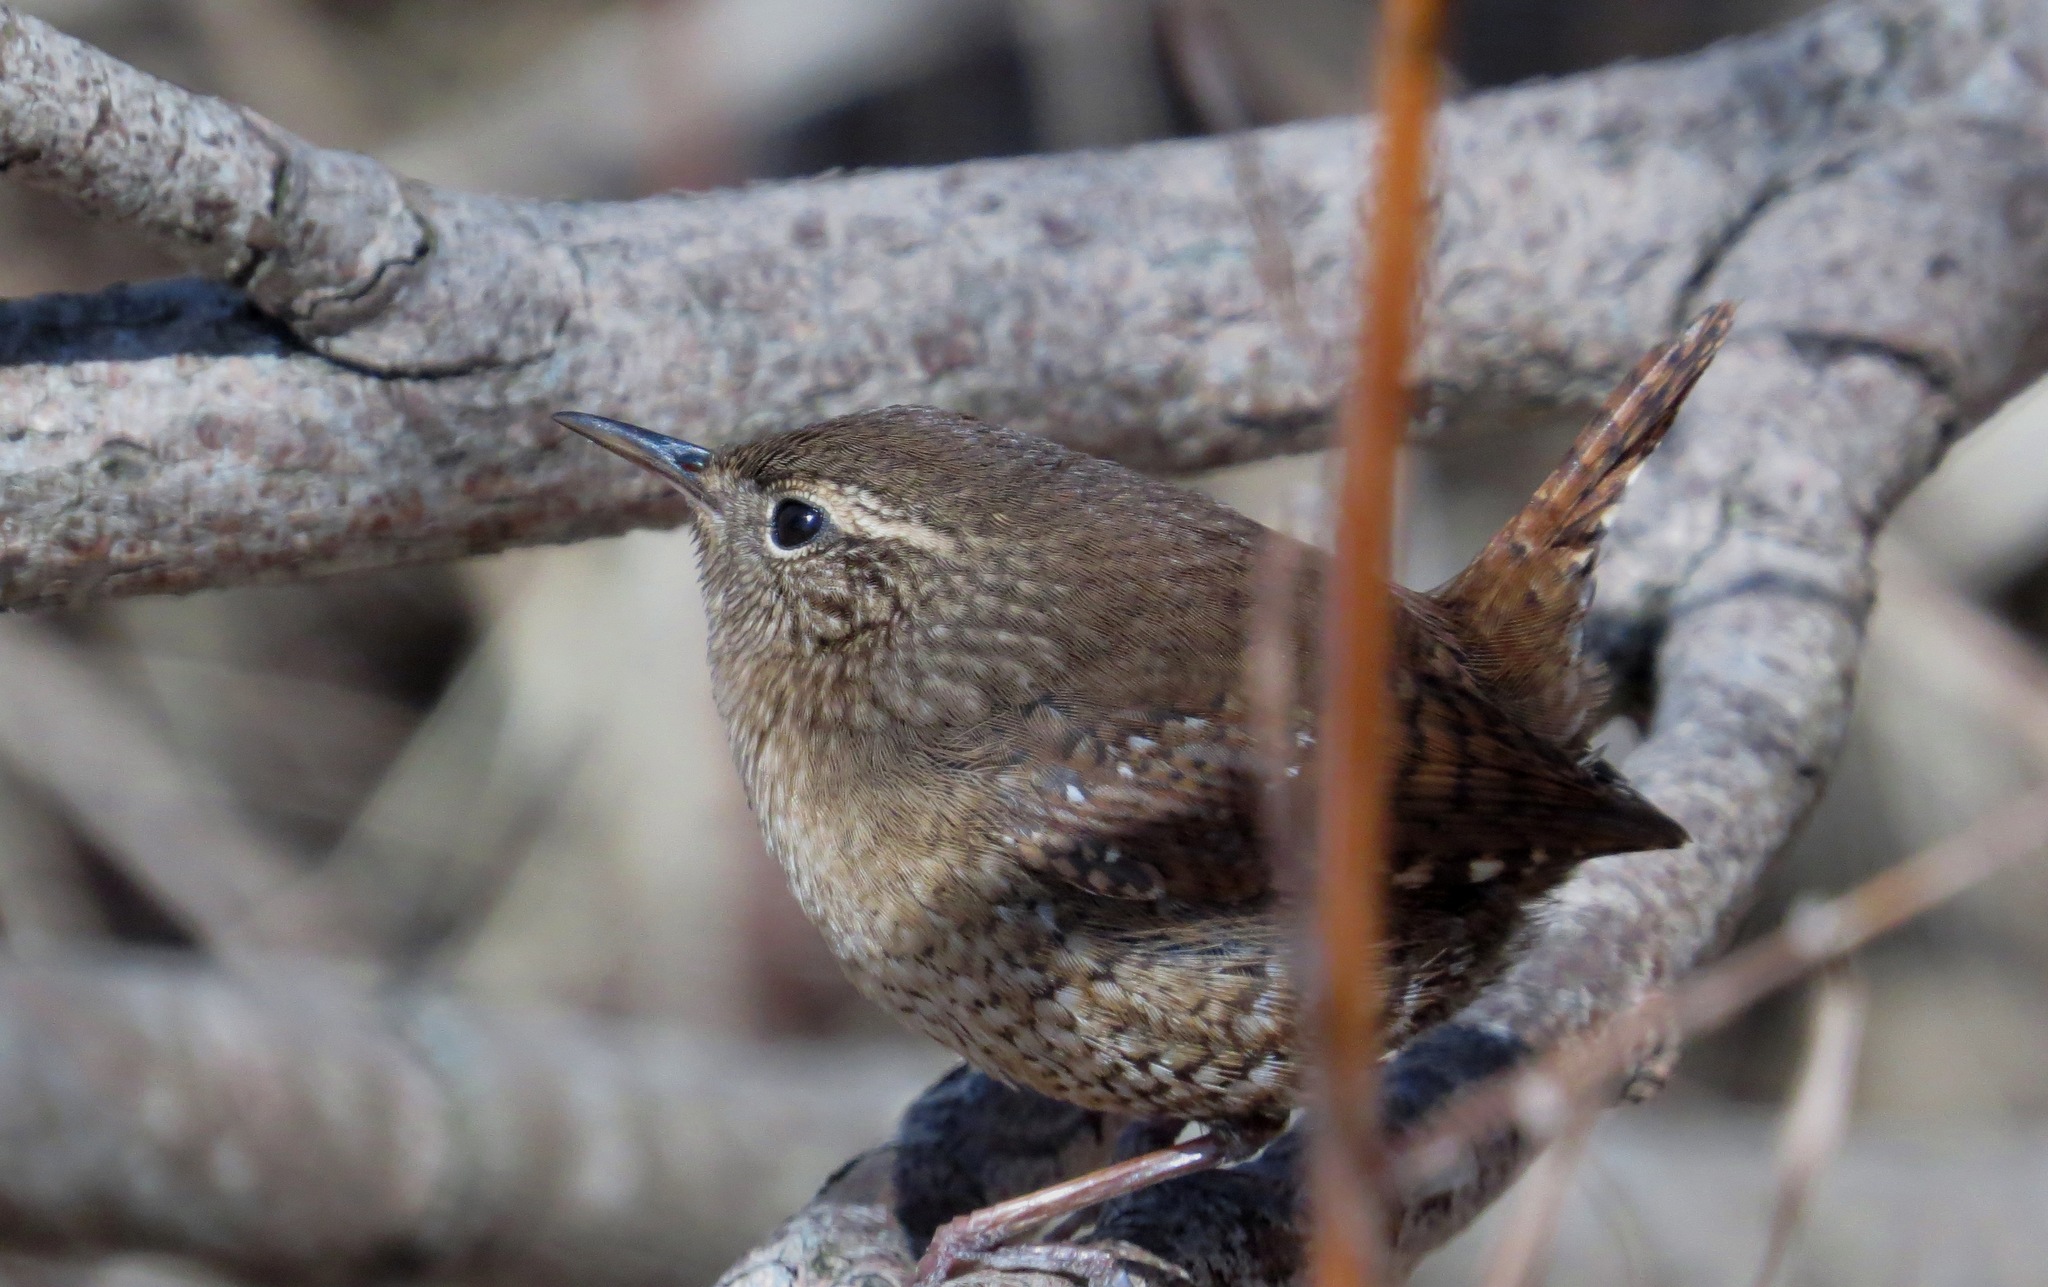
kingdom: Animalia
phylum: Chordata
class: Aves
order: Passeriformes
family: Troglodytidae
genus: Troglodytes
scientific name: Troglodytes hiemalis
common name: Winter wren
